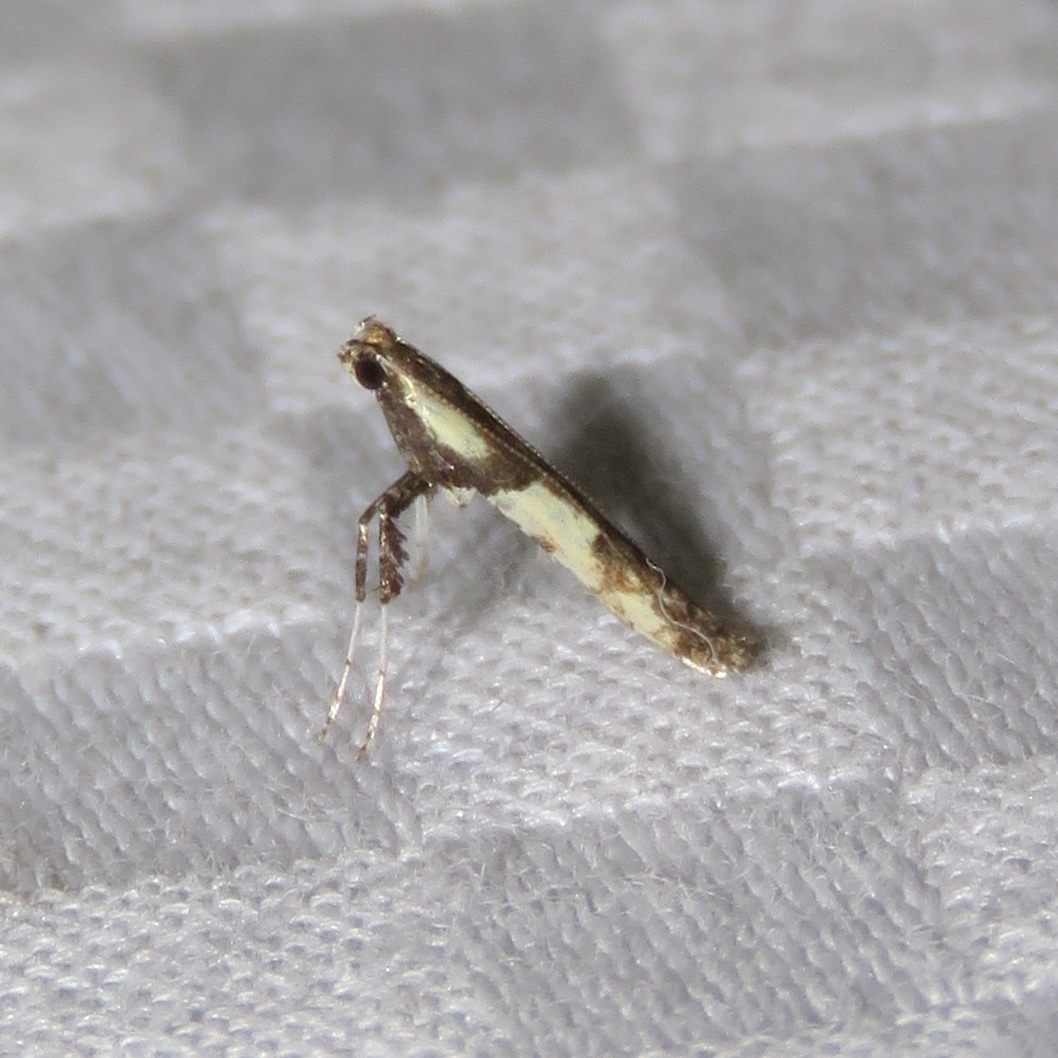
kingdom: Animalia
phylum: Arthropoda
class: Insecta
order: Lepidoptera
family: Gracillariidae
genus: Caloptilia
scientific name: Caloptilia blandella
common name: Walnut caloptilia moth
